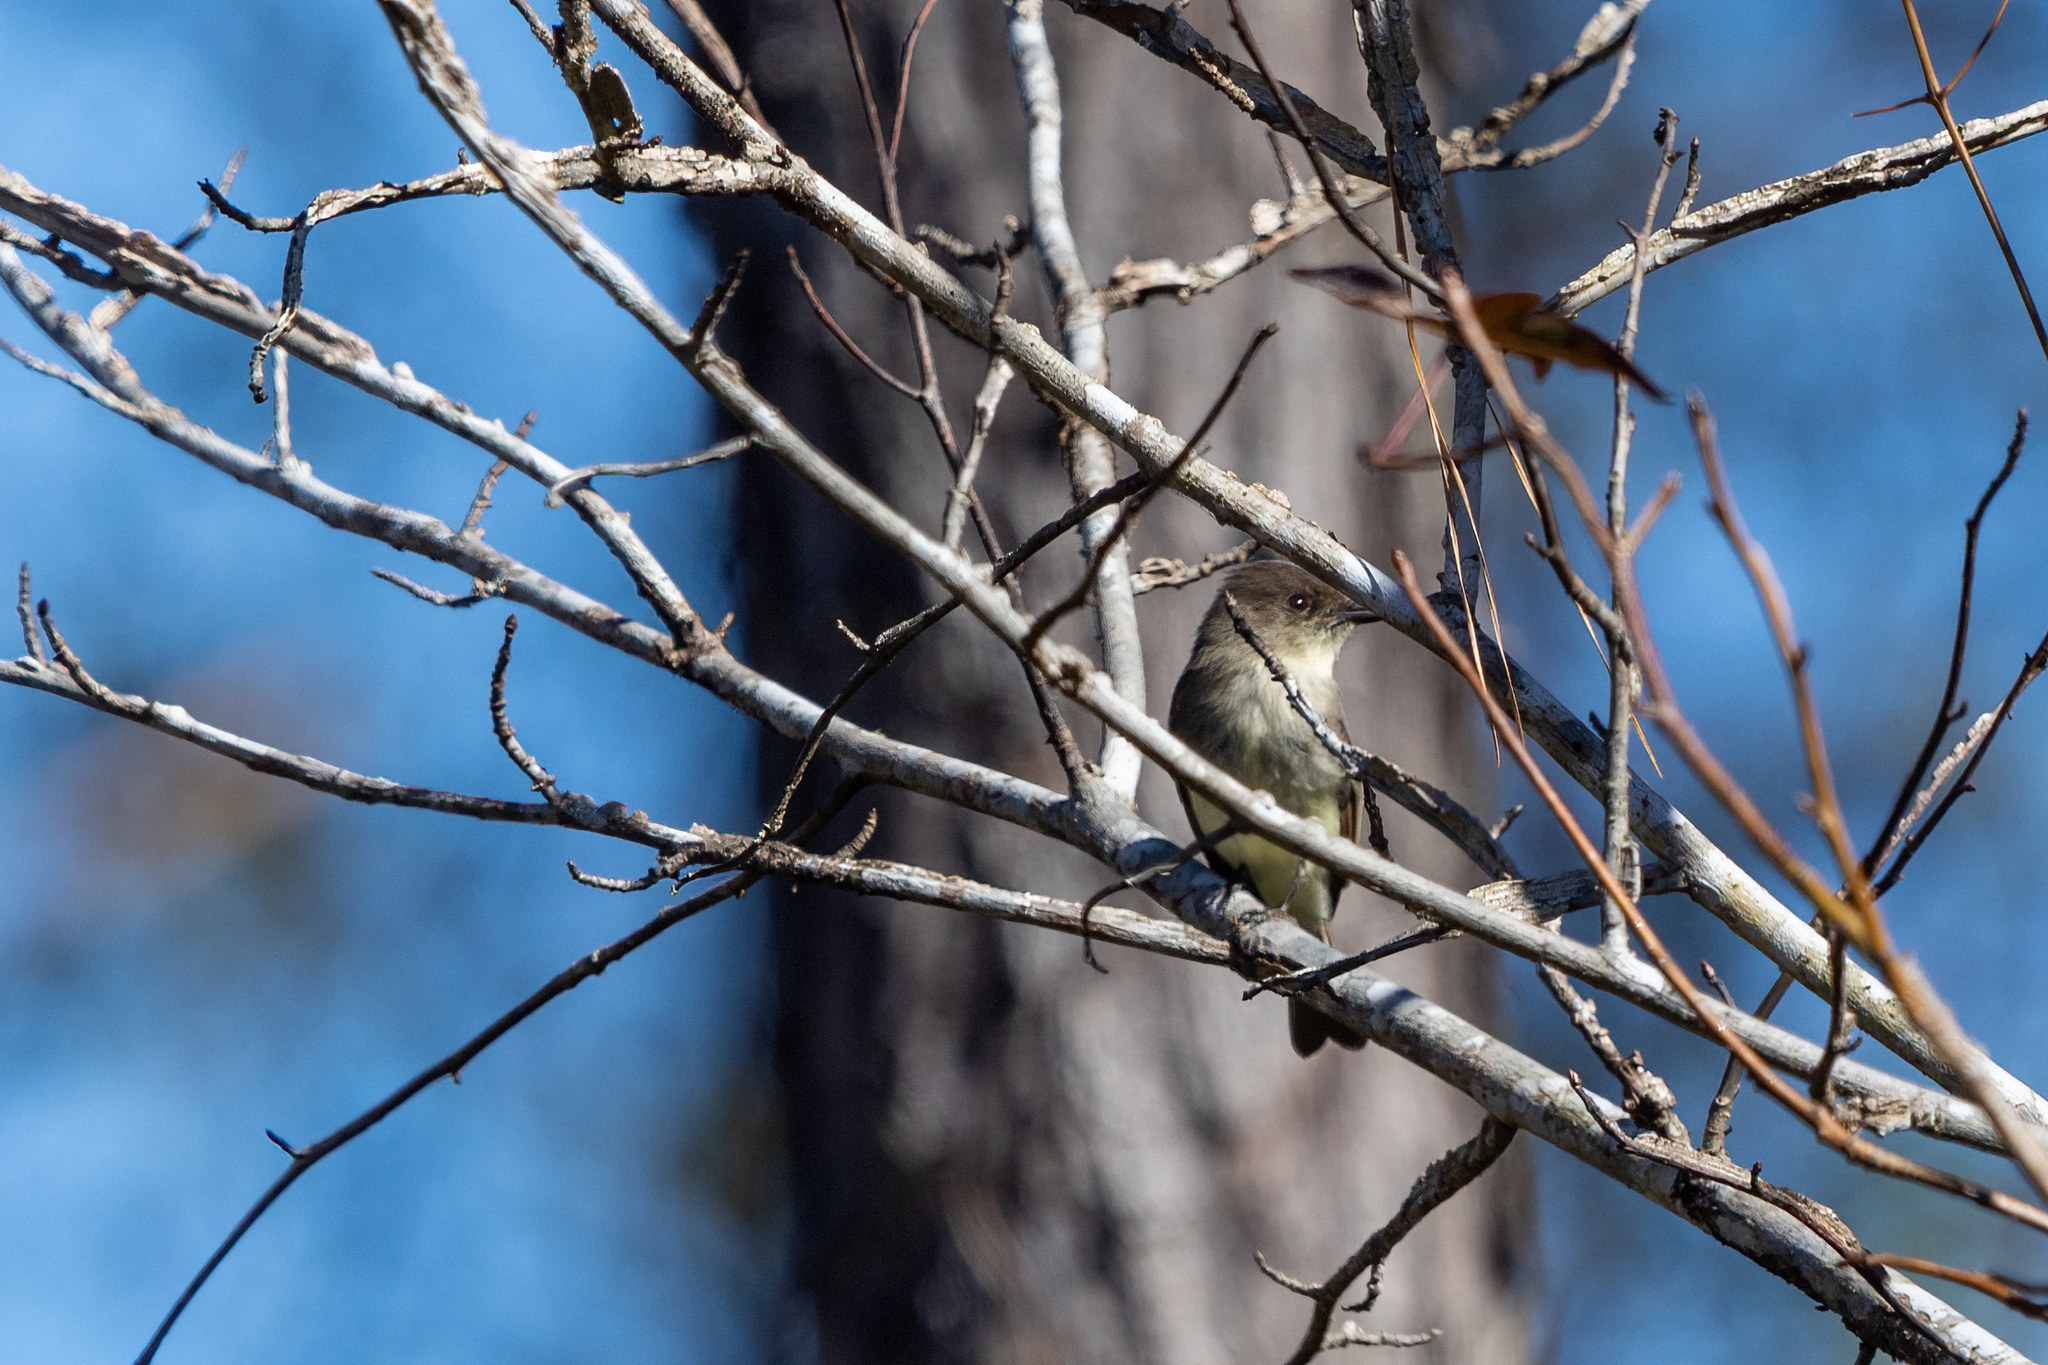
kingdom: Animalia
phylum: Chordata
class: Aves
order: Passeriformes
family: Tyrannidae
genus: Sayornis
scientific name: Sayornis phoebe
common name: Eastern phoebe
